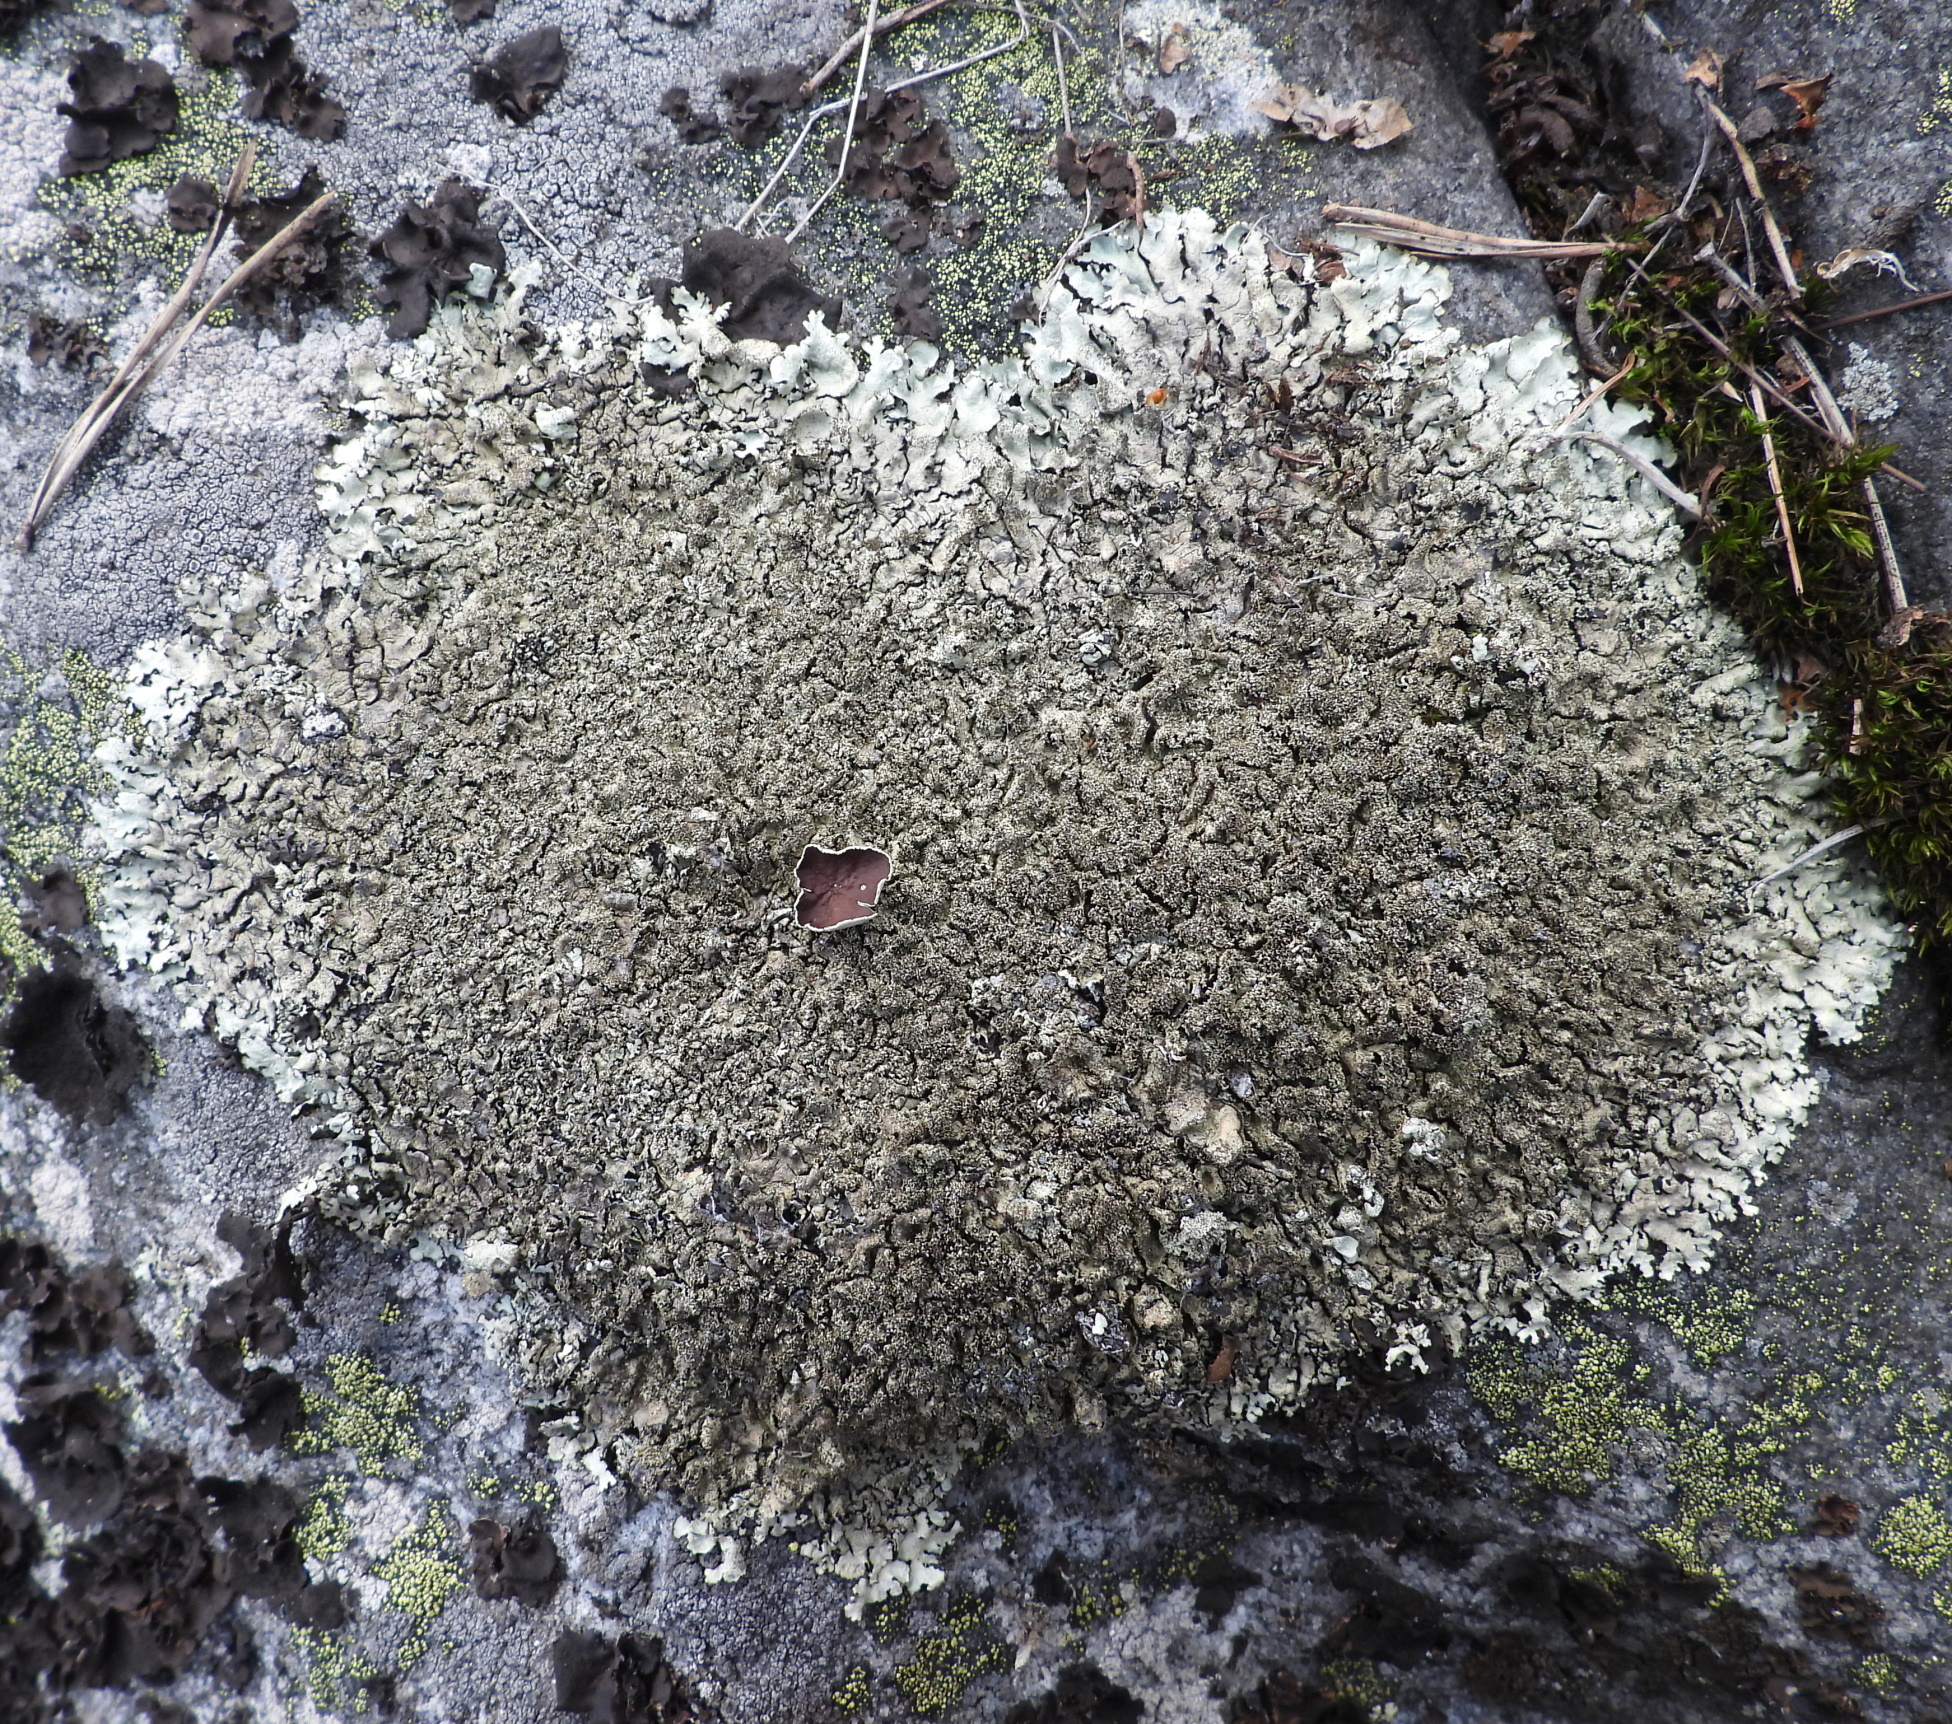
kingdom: Fungi
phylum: Ascomycota
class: Lecanoromycetes
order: Lecanorales
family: Parmeliaceae
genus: Xanthoparmelia
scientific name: Xanthoparmelia conspersa
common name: Peppered rock shield
